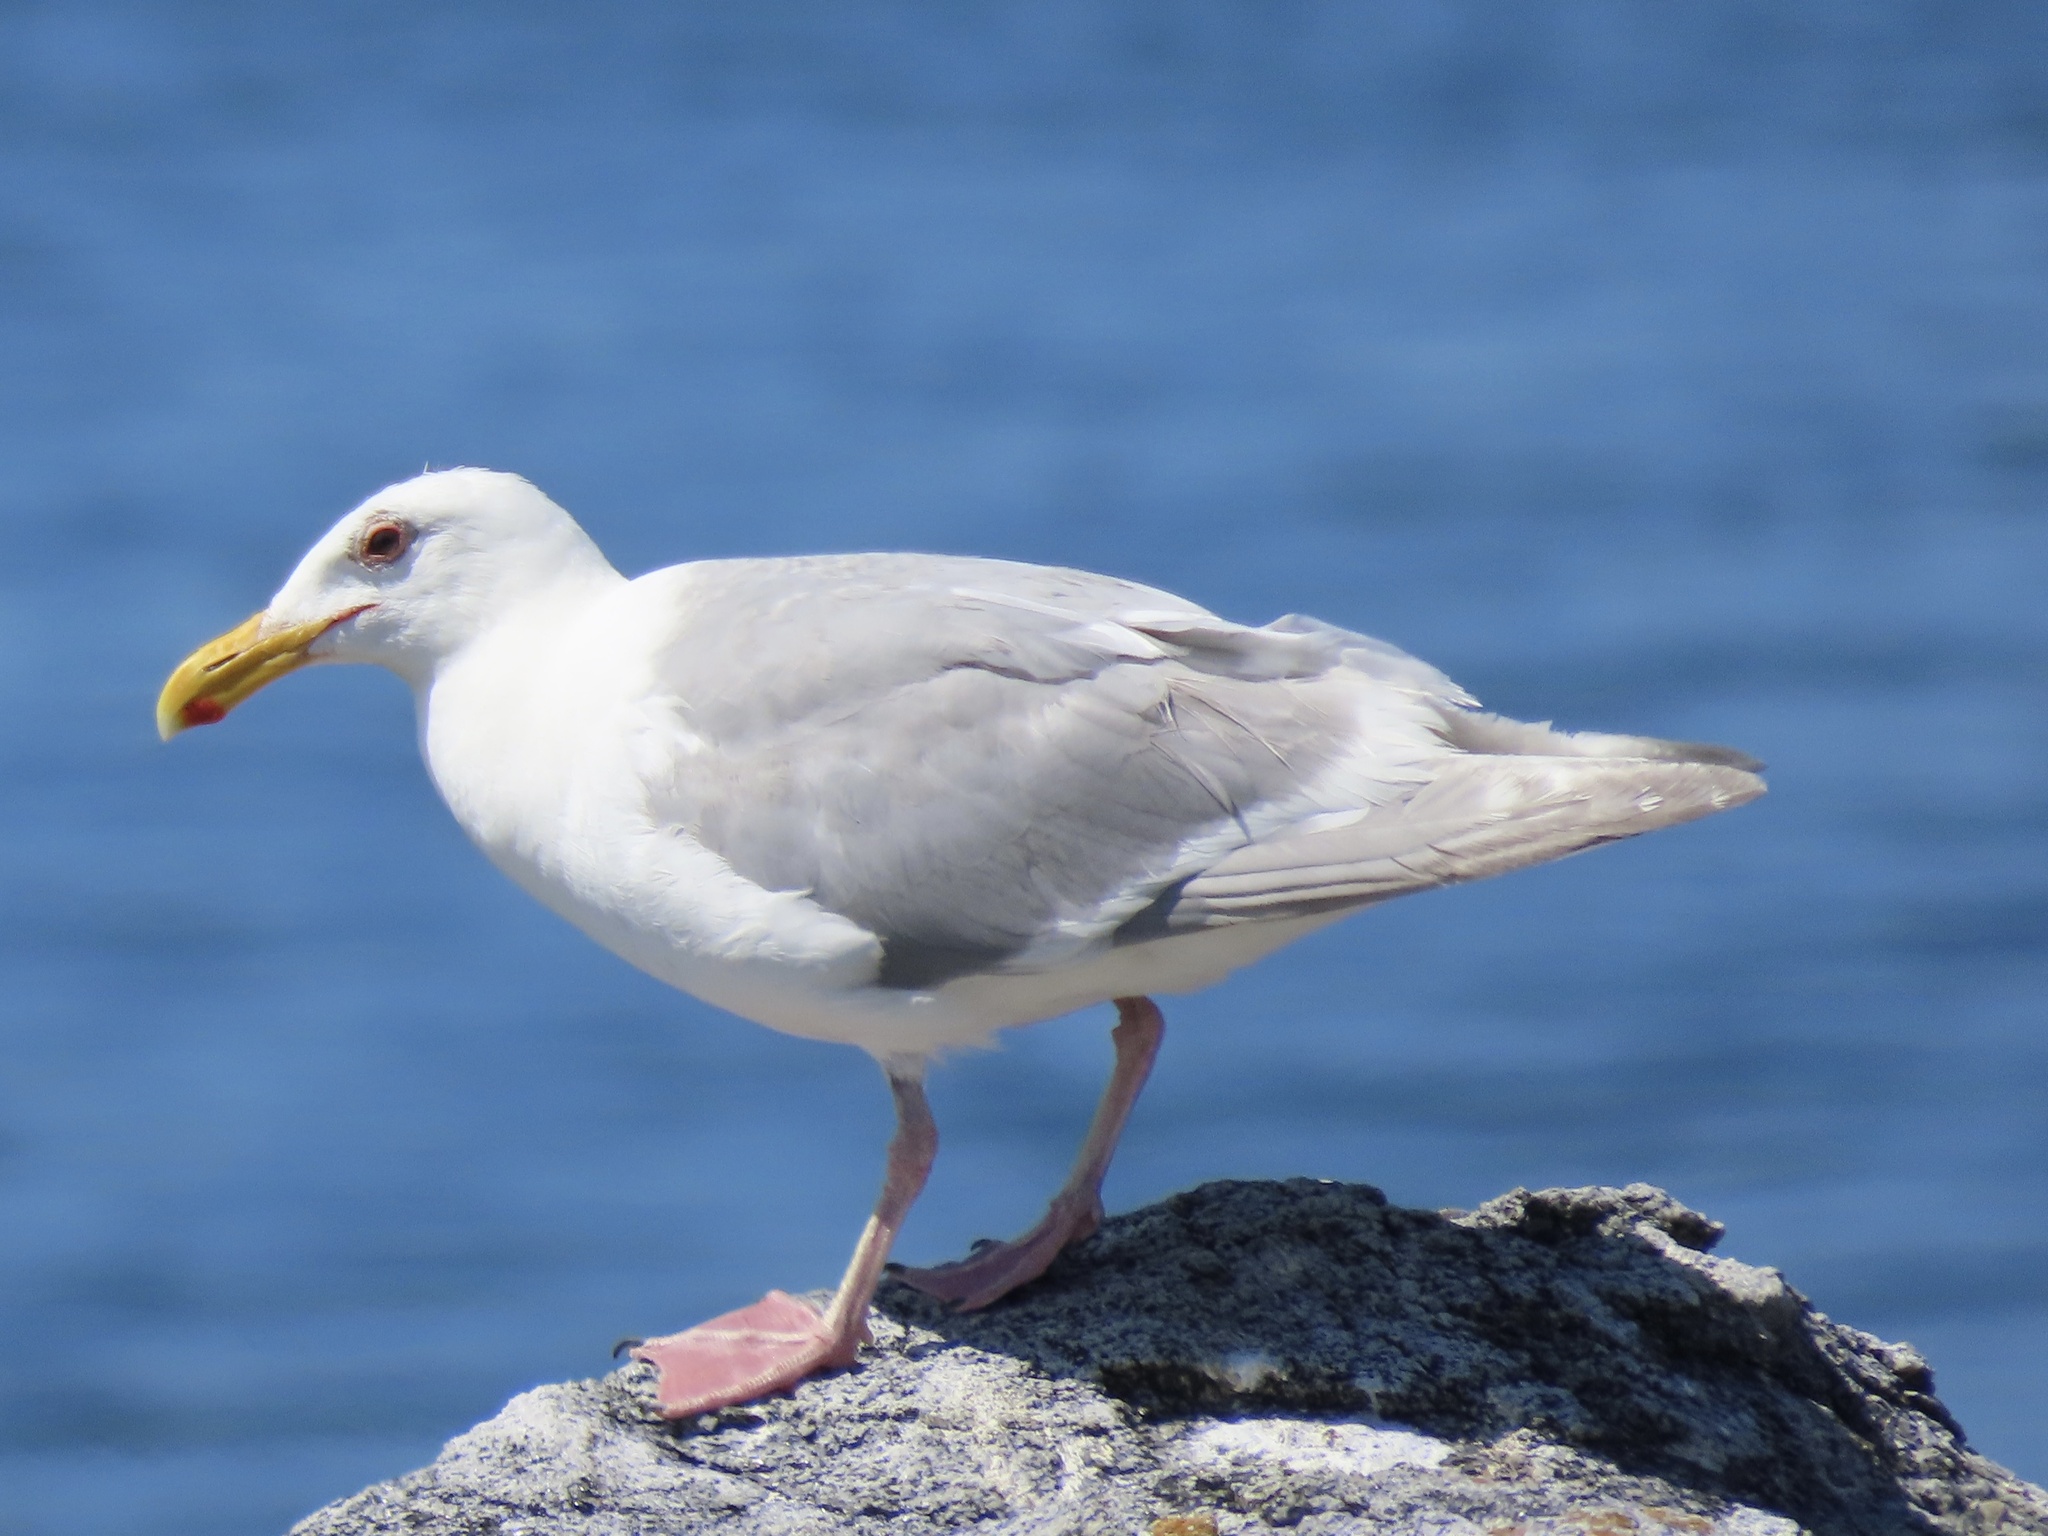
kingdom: Animalia
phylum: Chordata
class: Aves
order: Charadriiformes
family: Laridae
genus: Larus
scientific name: Larus glaucescens
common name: Glaucous-winged gull
